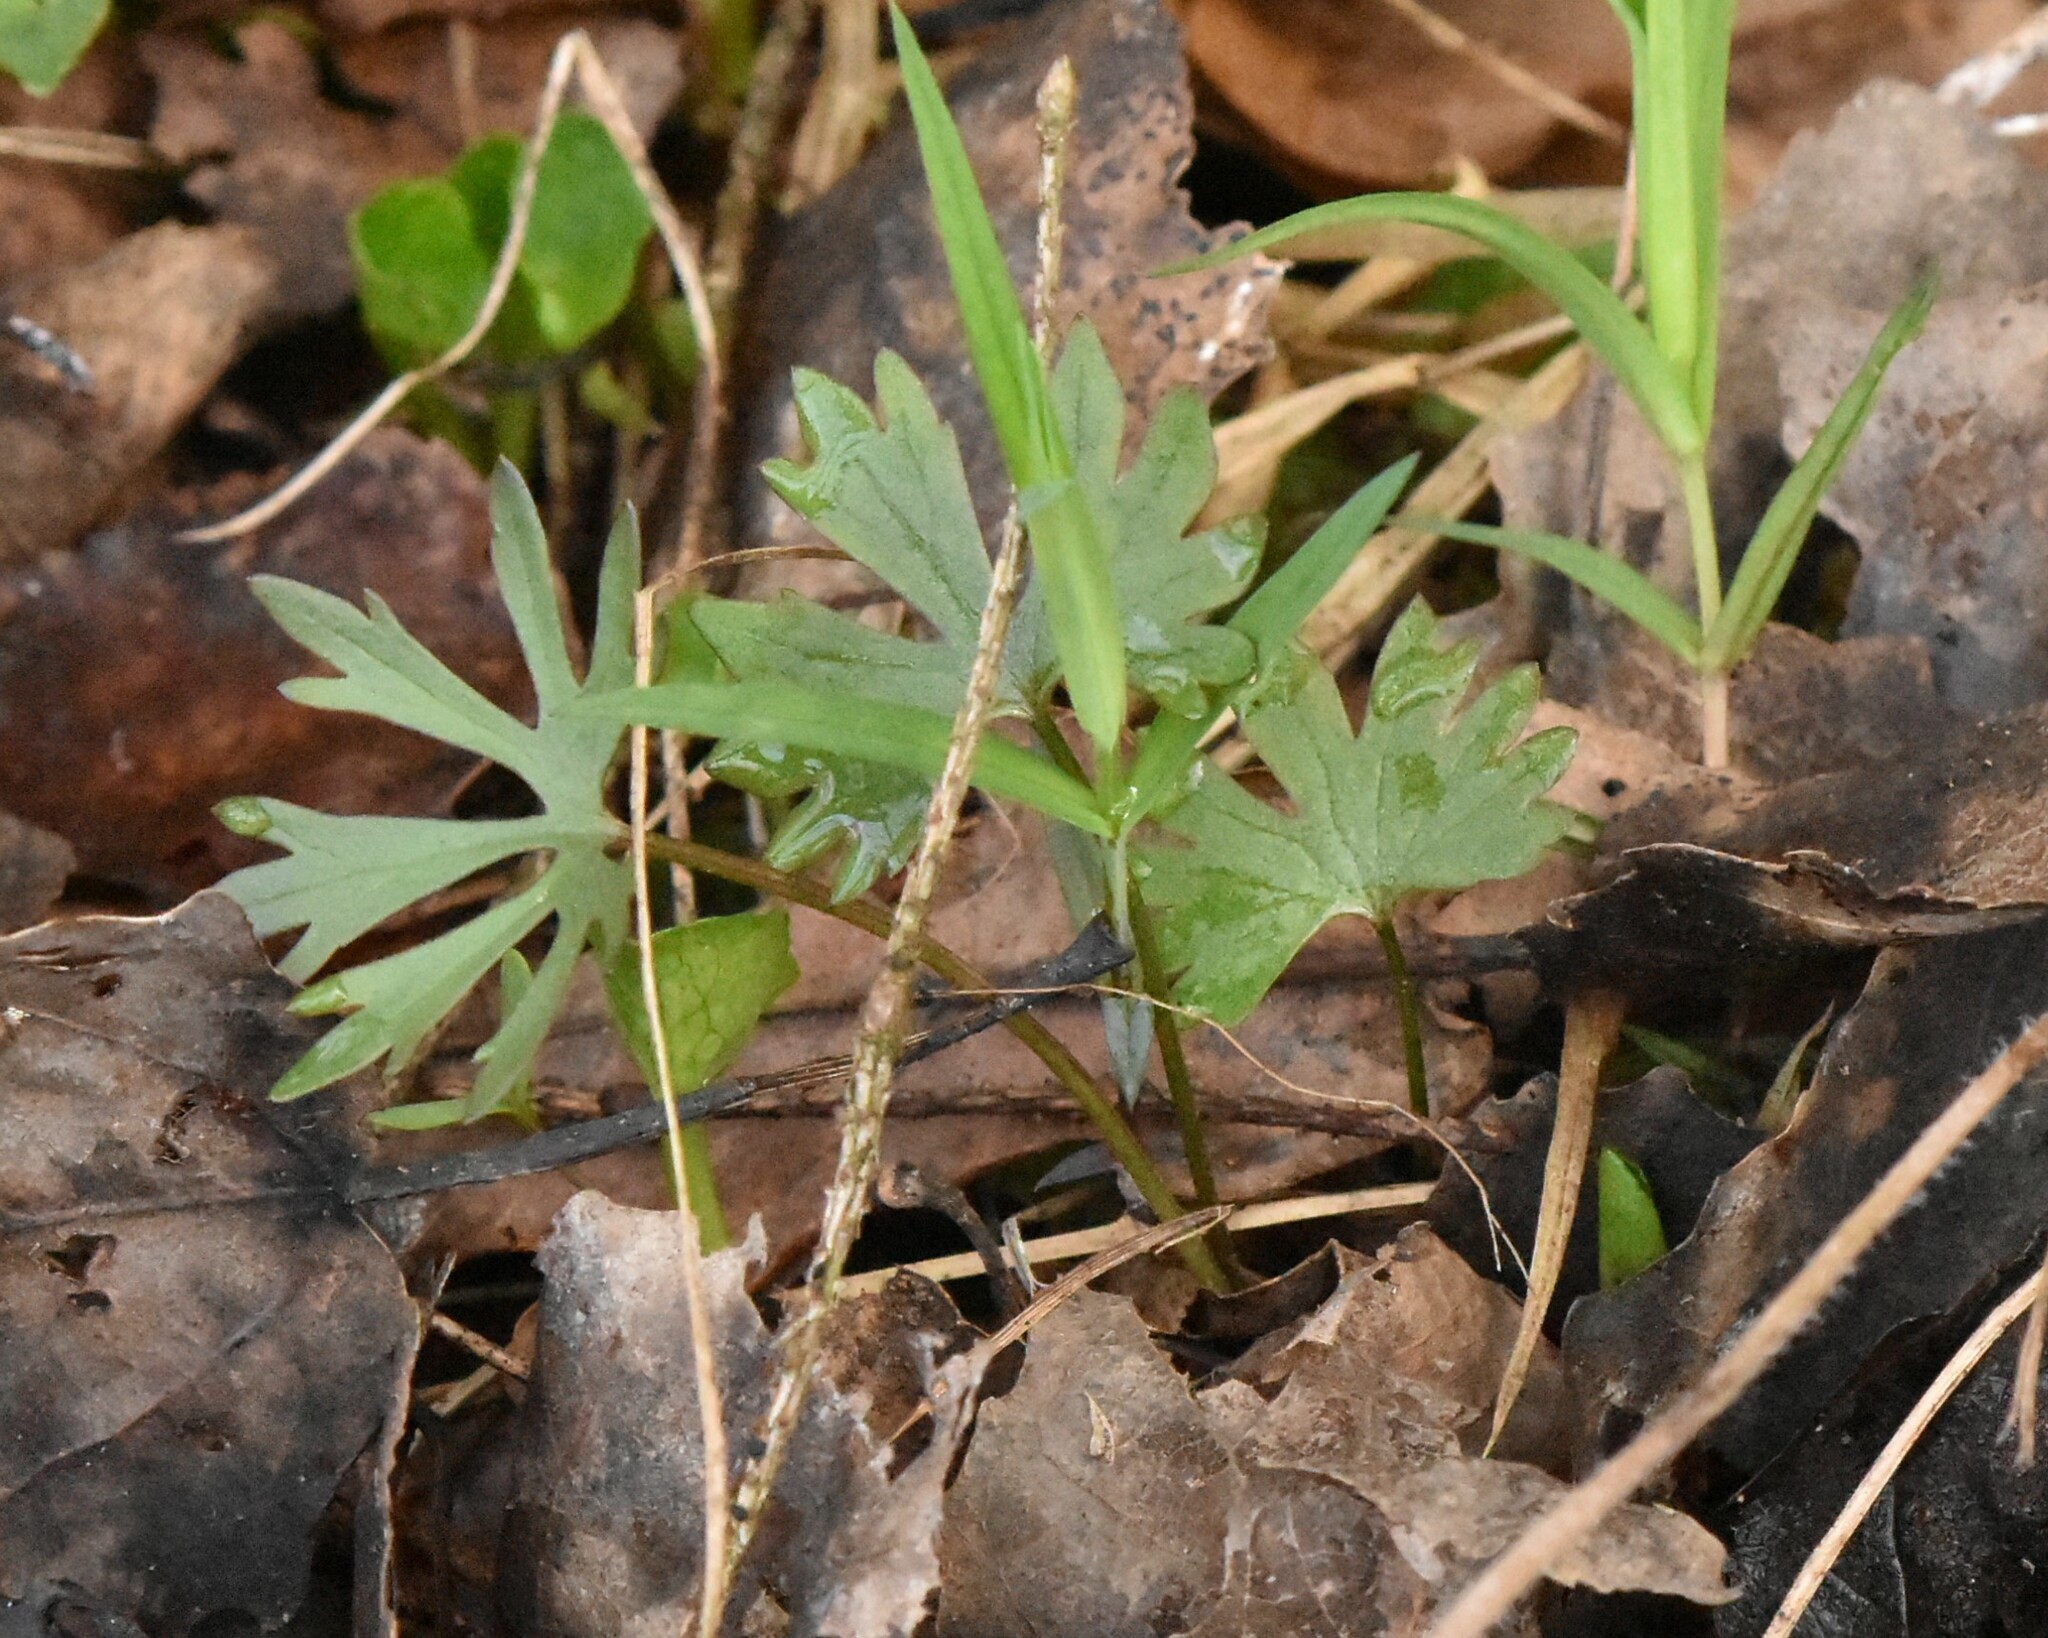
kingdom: Plantae
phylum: Tracheophyta
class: Magnoliopsida
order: Ranunculales
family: Ranunculaceae
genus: Ranunculus
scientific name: Ranunculus auricomus
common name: Goldilocks buttercup
